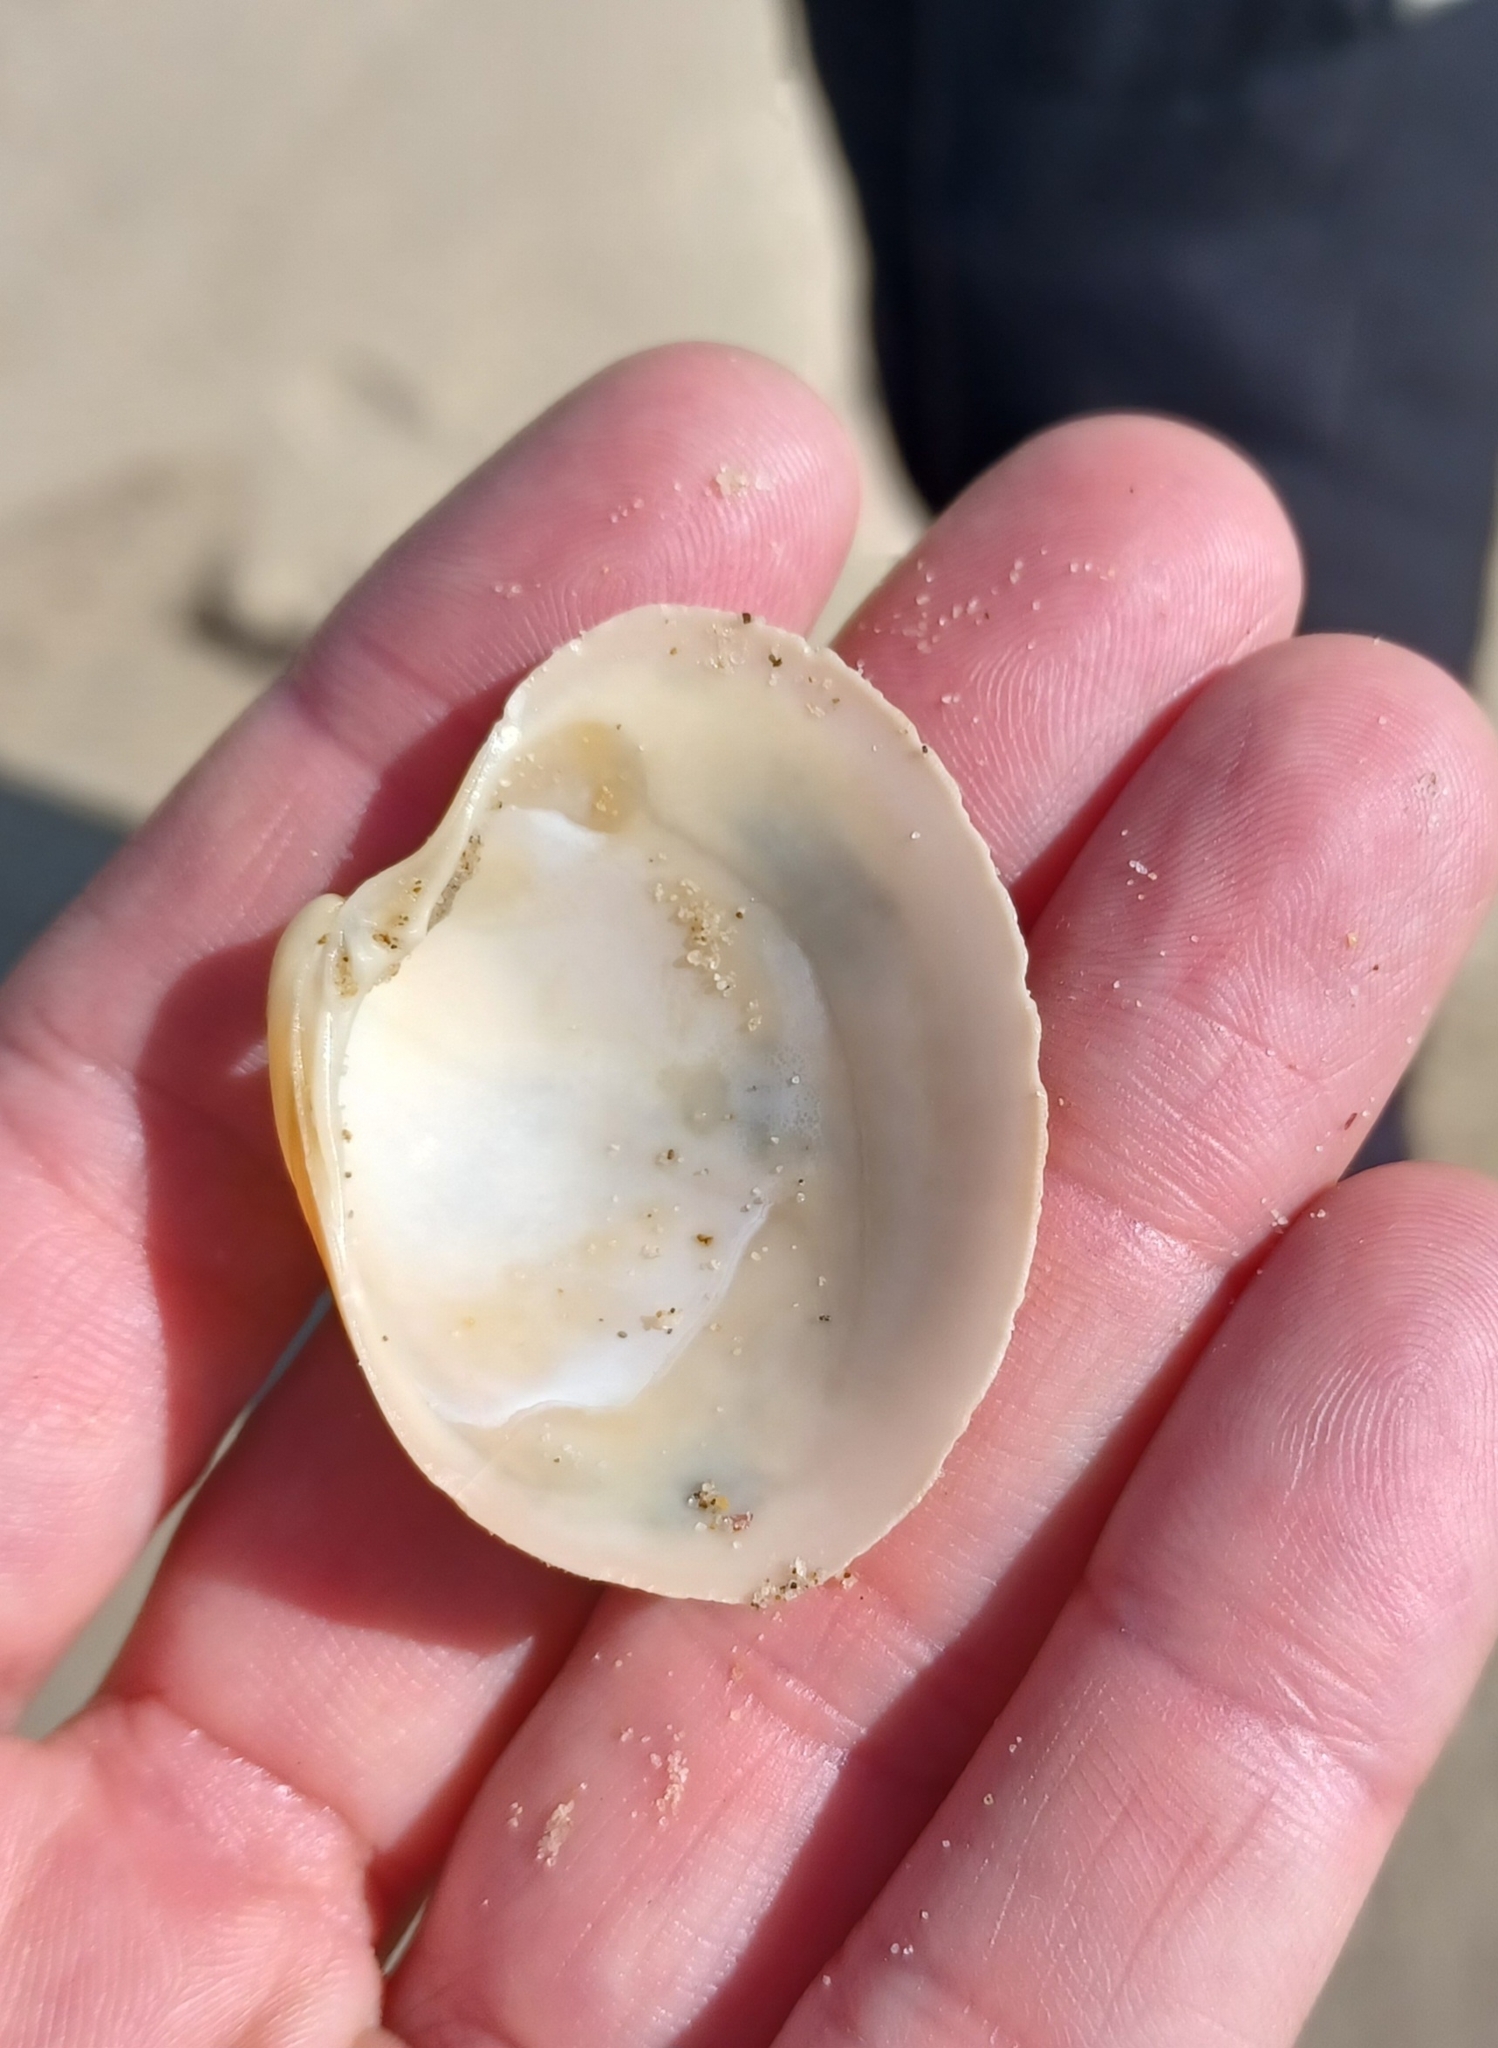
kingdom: Animalia
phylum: Mollusca
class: Bivalvia
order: Venerida
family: Veneridae
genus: Bassina
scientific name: Bassina pachyphylla
